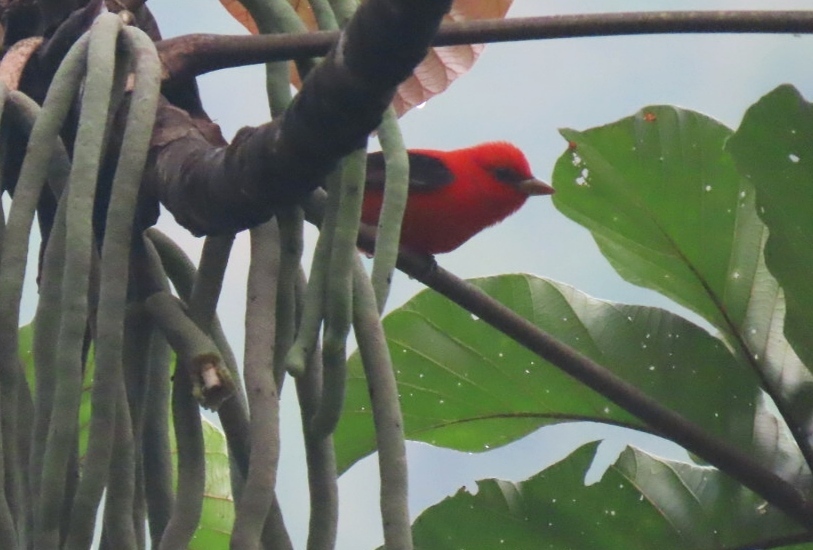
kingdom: Animalia
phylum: Chordata
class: Aves
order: Passeriformes
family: Cardinalidae
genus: Piranga
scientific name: Piranga olivacea
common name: Scarlet tanager
